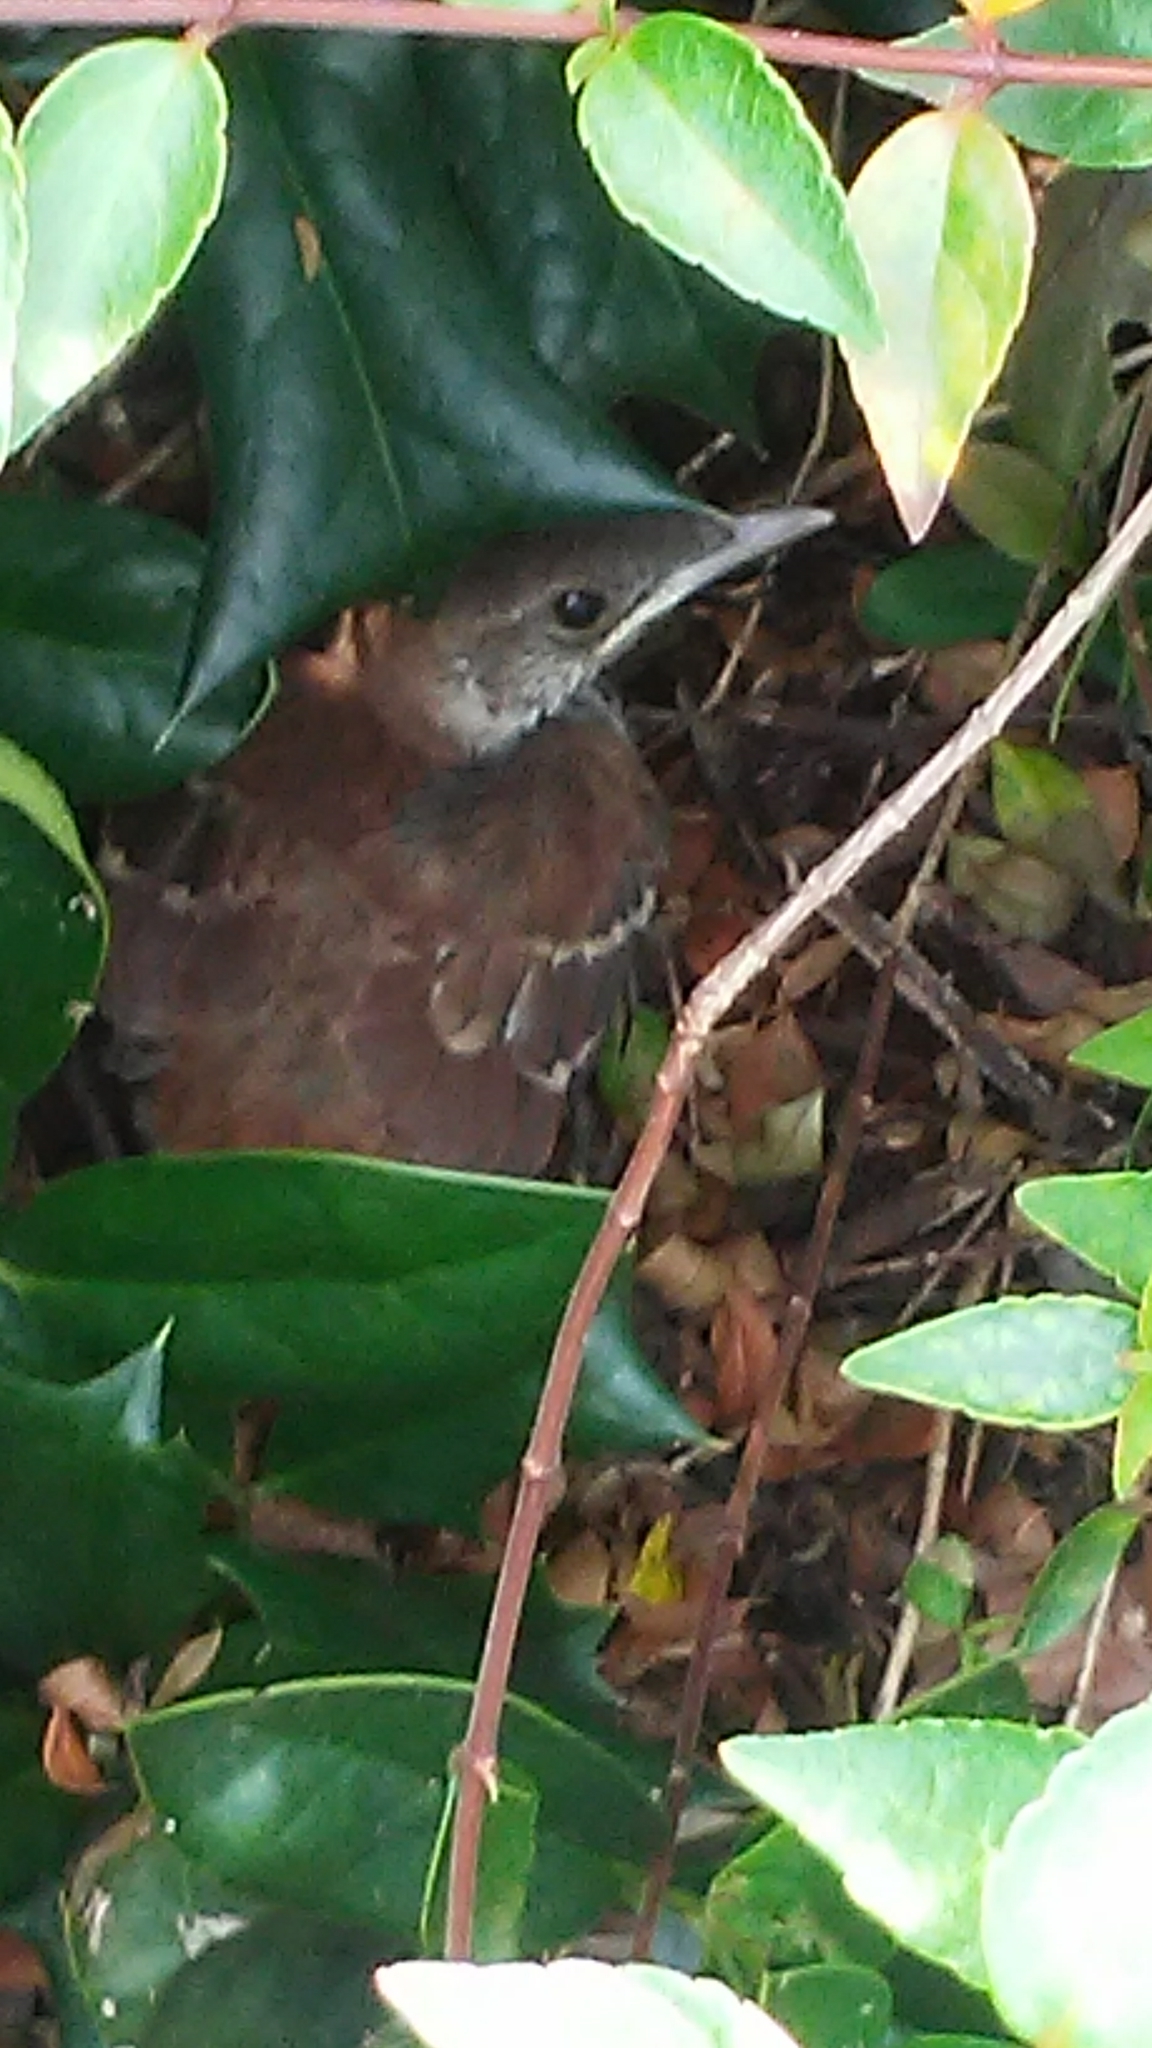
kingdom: Animalia
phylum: Chordata
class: Aves
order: Passeriformes
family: Mimidae
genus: Toxostoma
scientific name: Toxostoma rufum
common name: Brown thrasher
